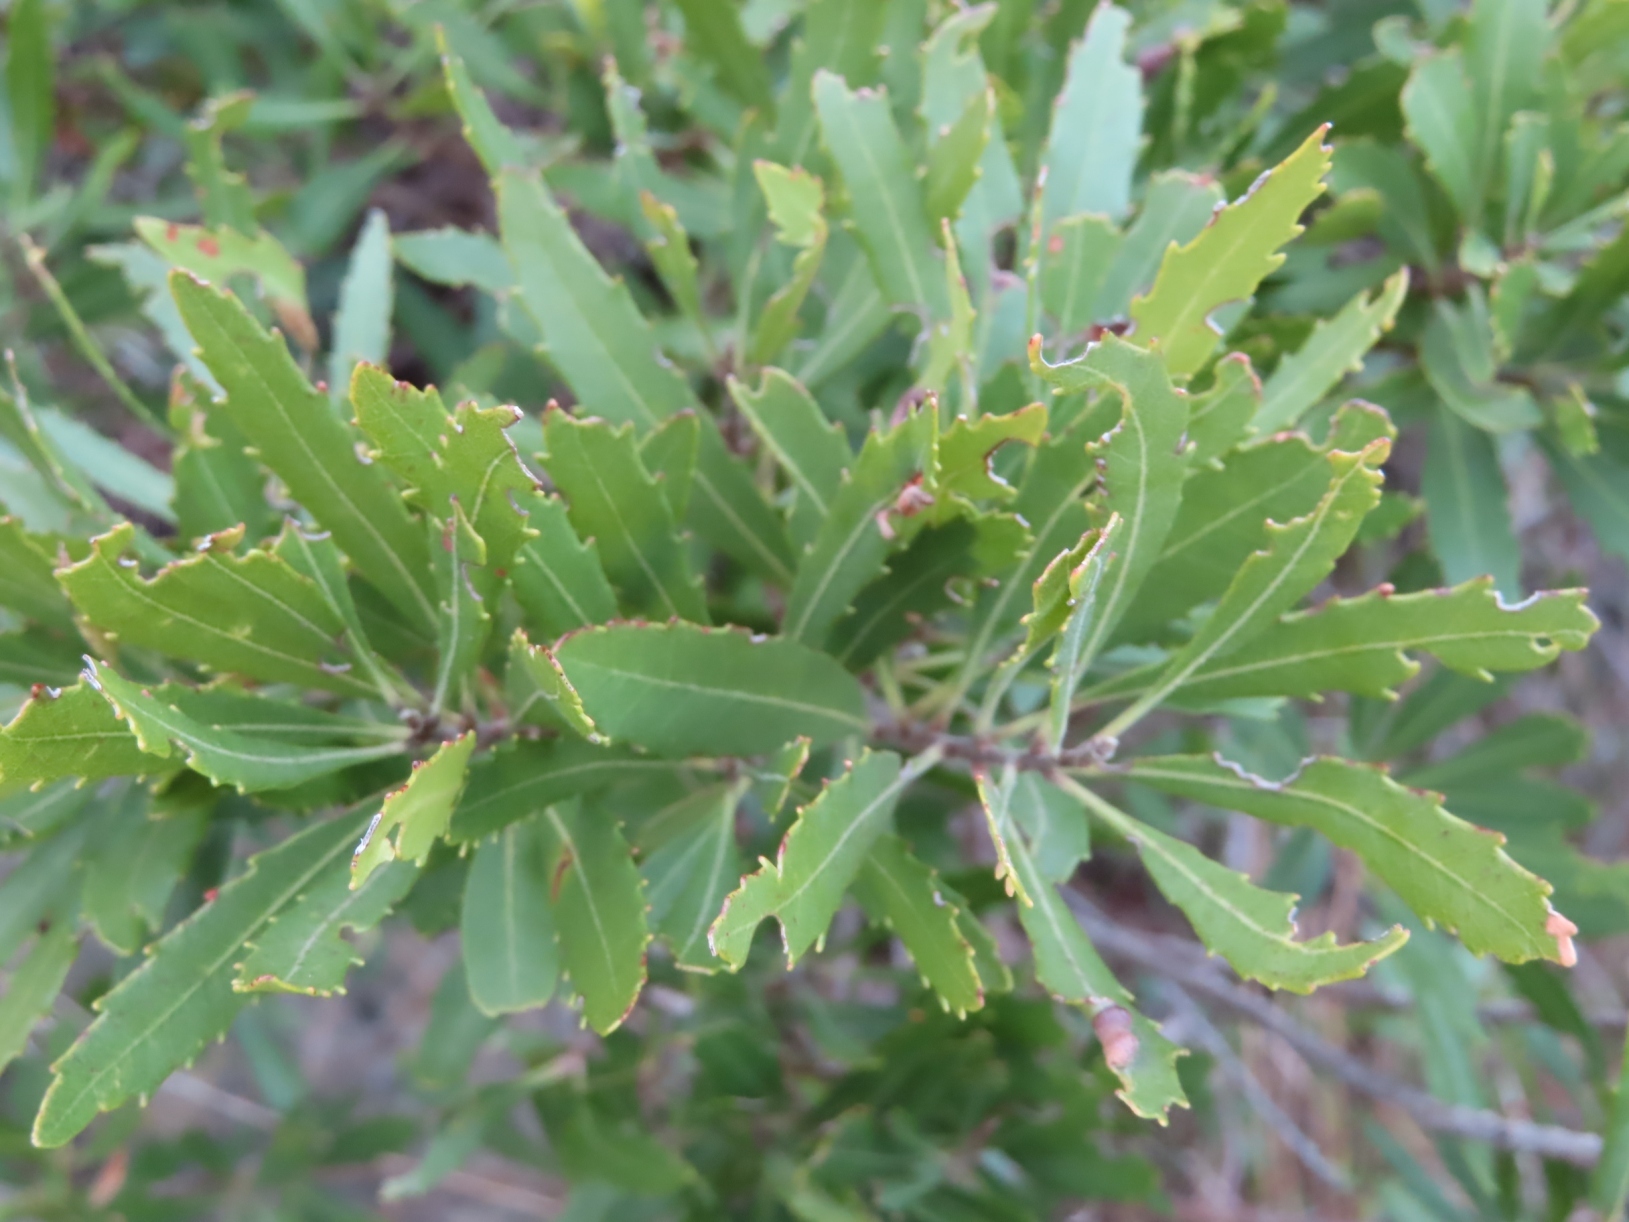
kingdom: Plantae
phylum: Tracheophyta
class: Magnoliopsida
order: Fagales
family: Myricaceae
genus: Morella
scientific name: Morella serrata
